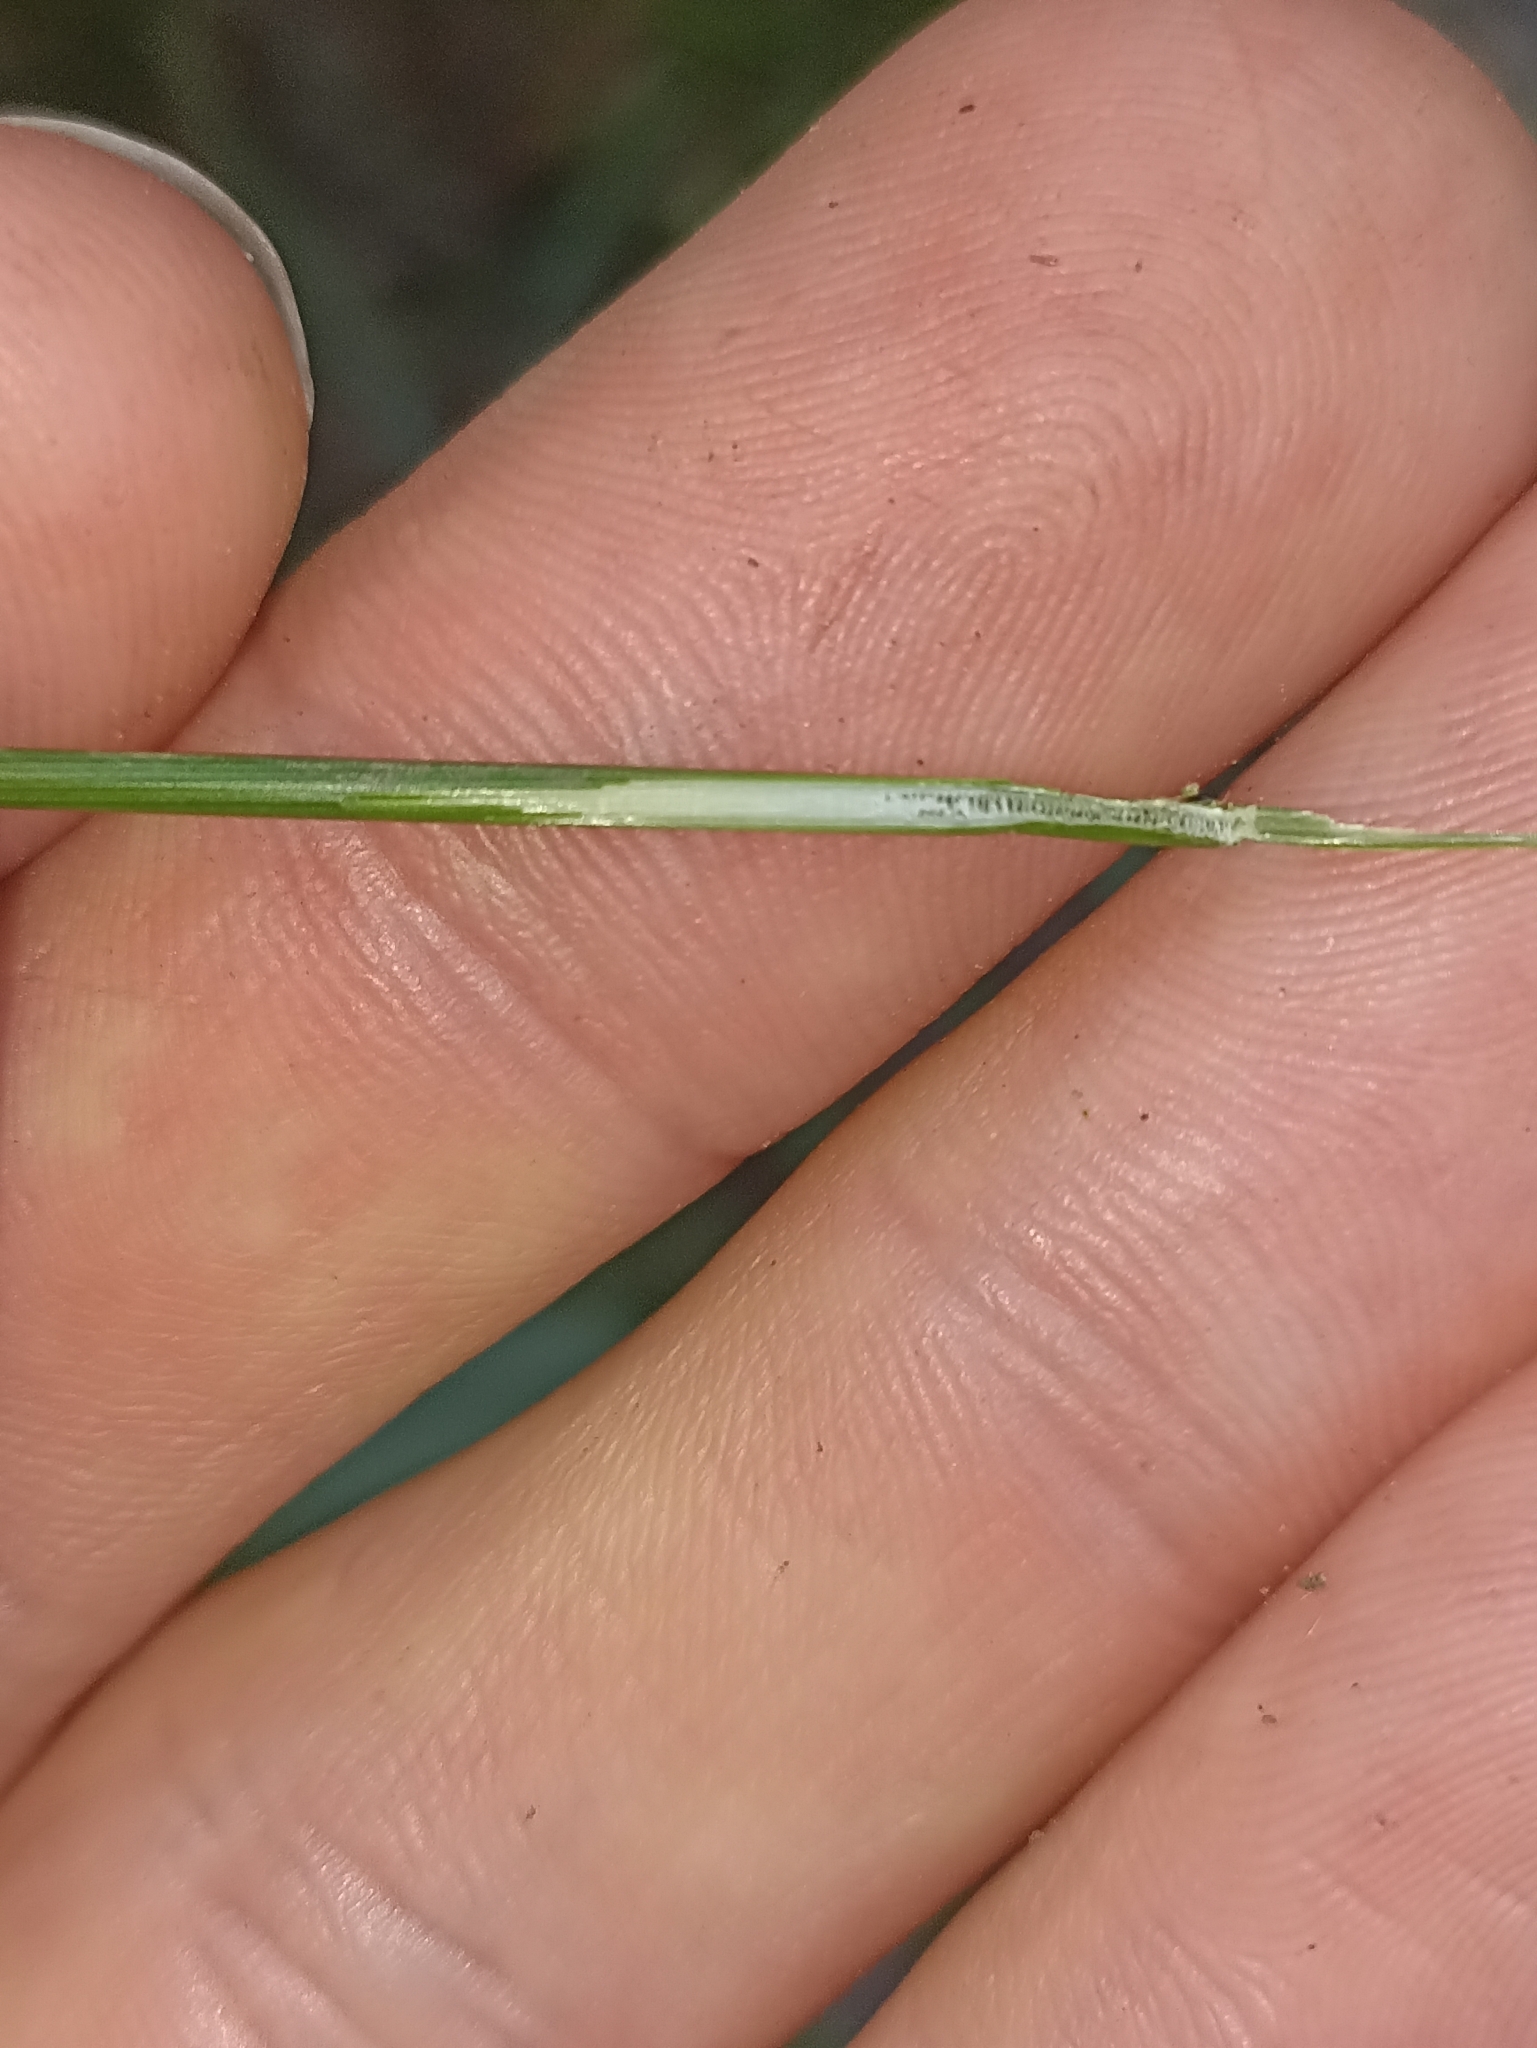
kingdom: Plantae
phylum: Tracheophyta
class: Liliopsida
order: Poales
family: Juncaceae
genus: Juncus
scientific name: Juncus tenuis
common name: Slender rush
